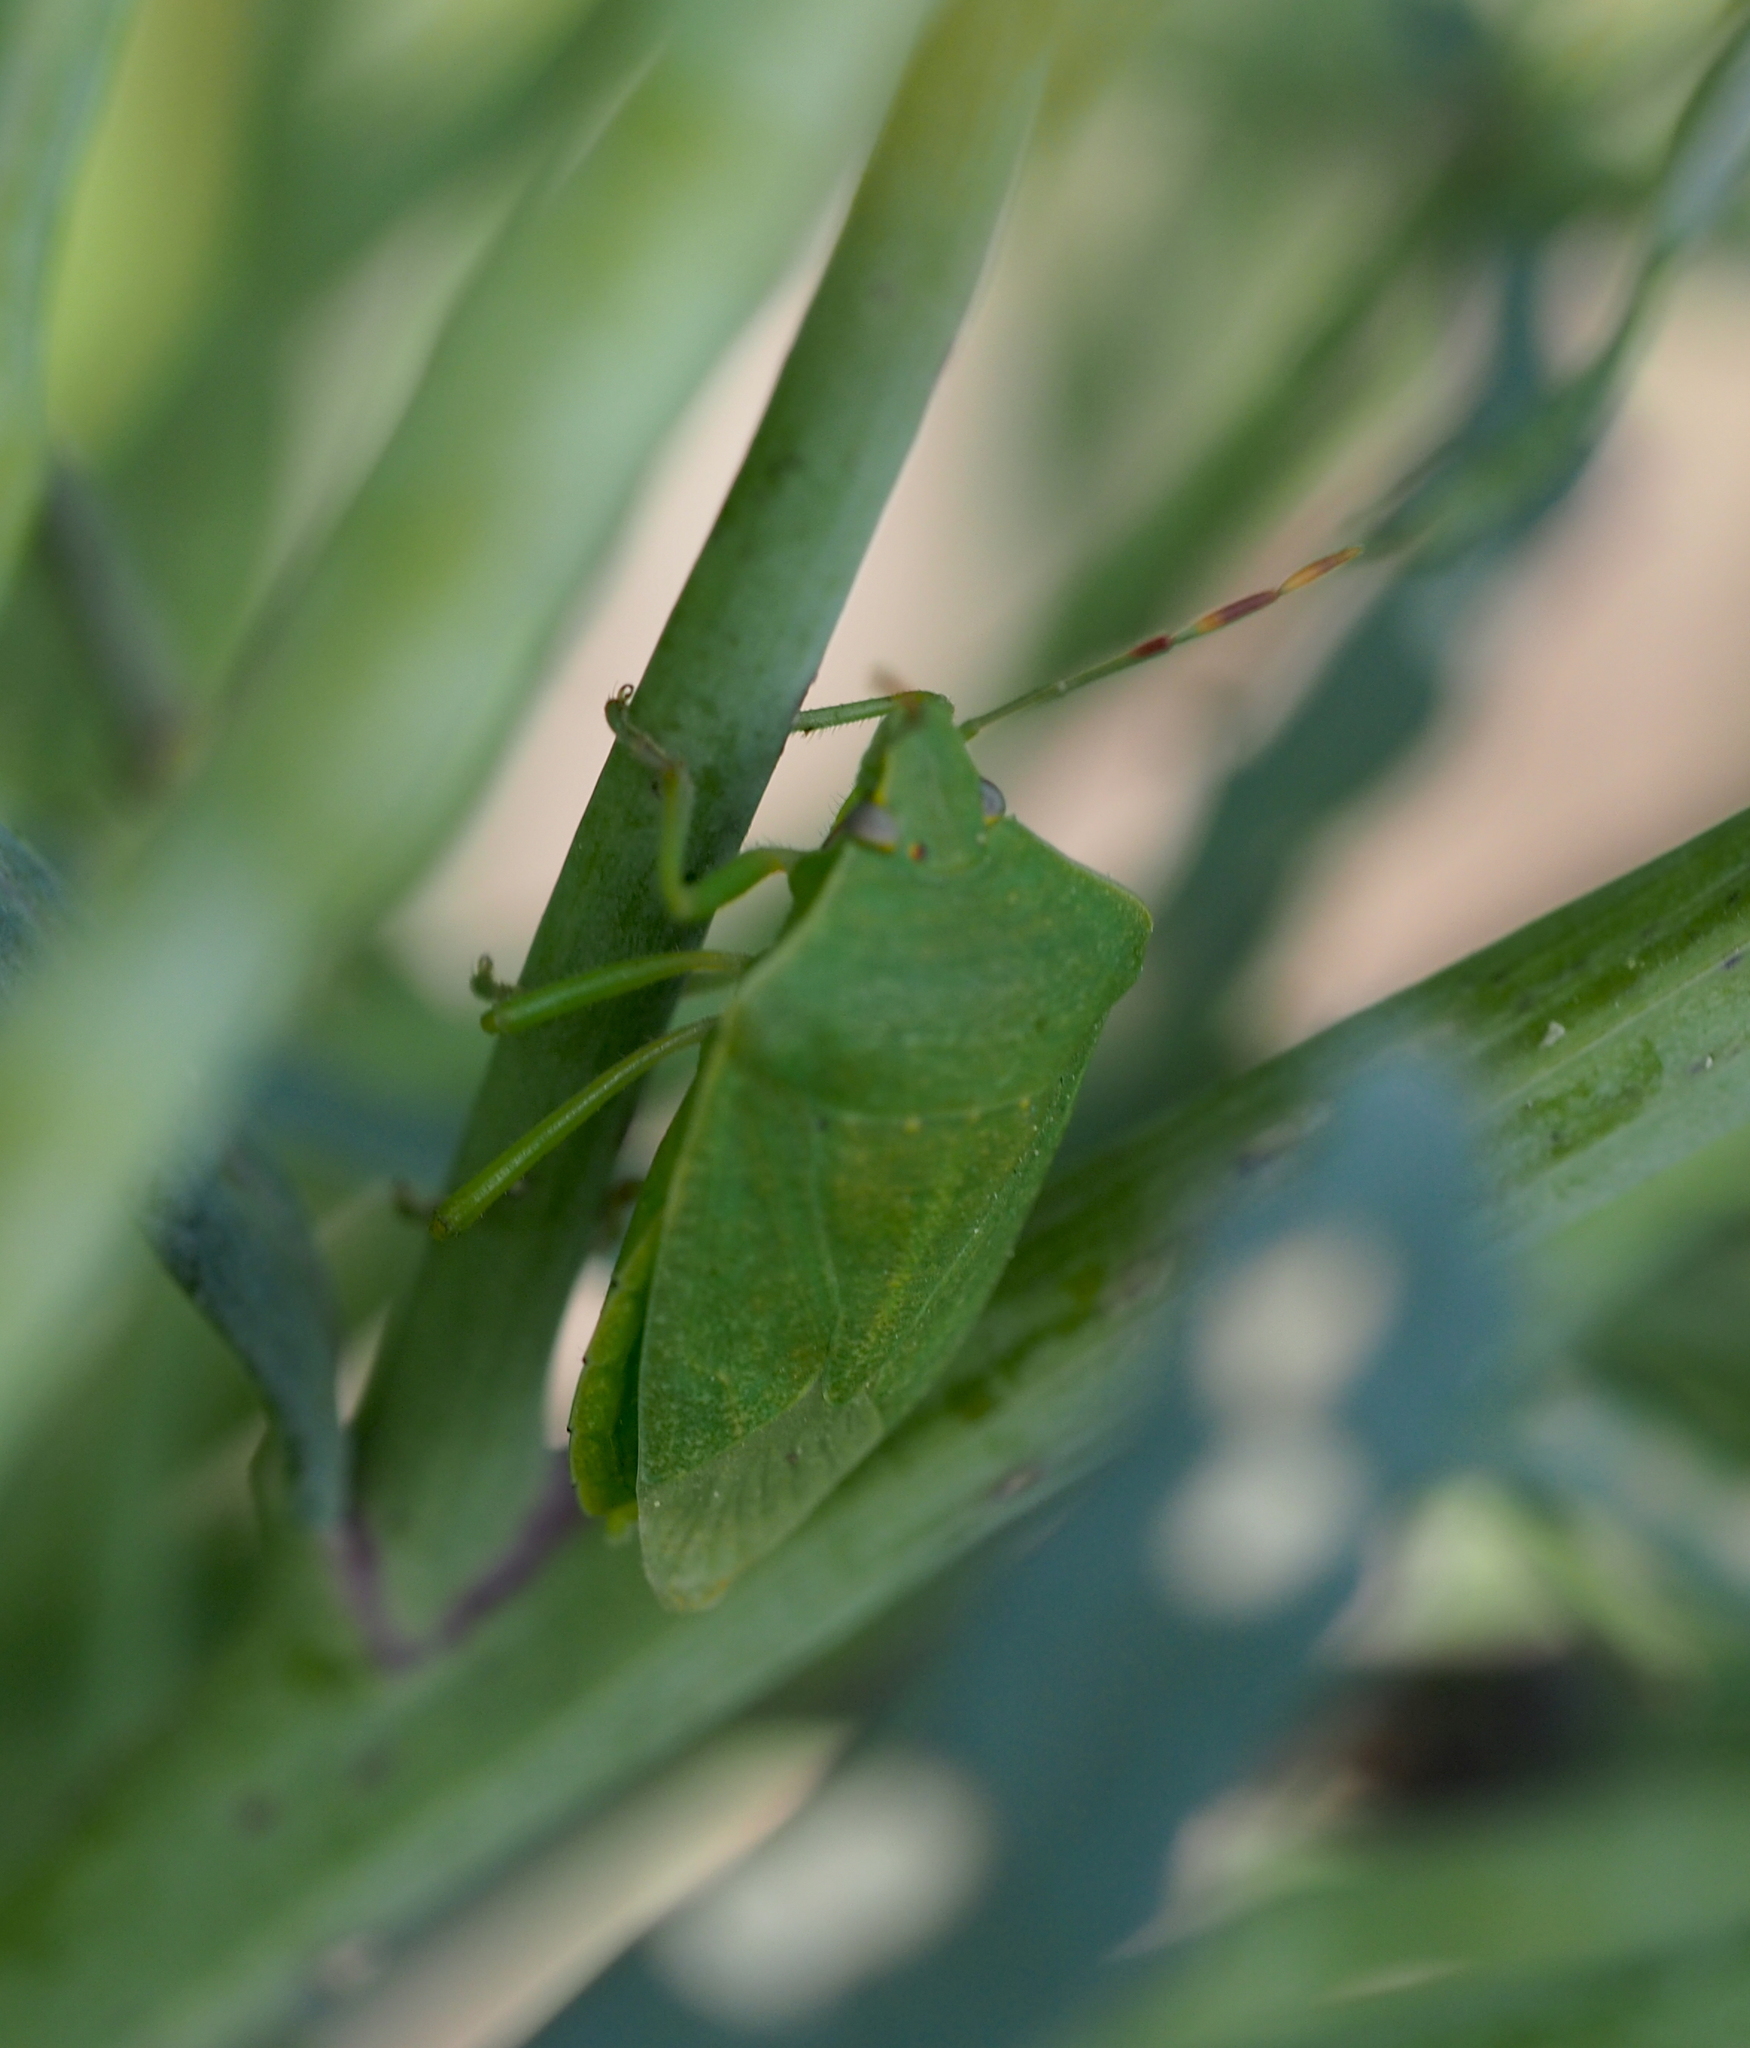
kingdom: Animalia
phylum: Arthropoda
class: Insecta
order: Hemiptera
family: Pentatomidae
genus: Nezara
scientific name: Nezara viridula
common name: Southern green stink bug
